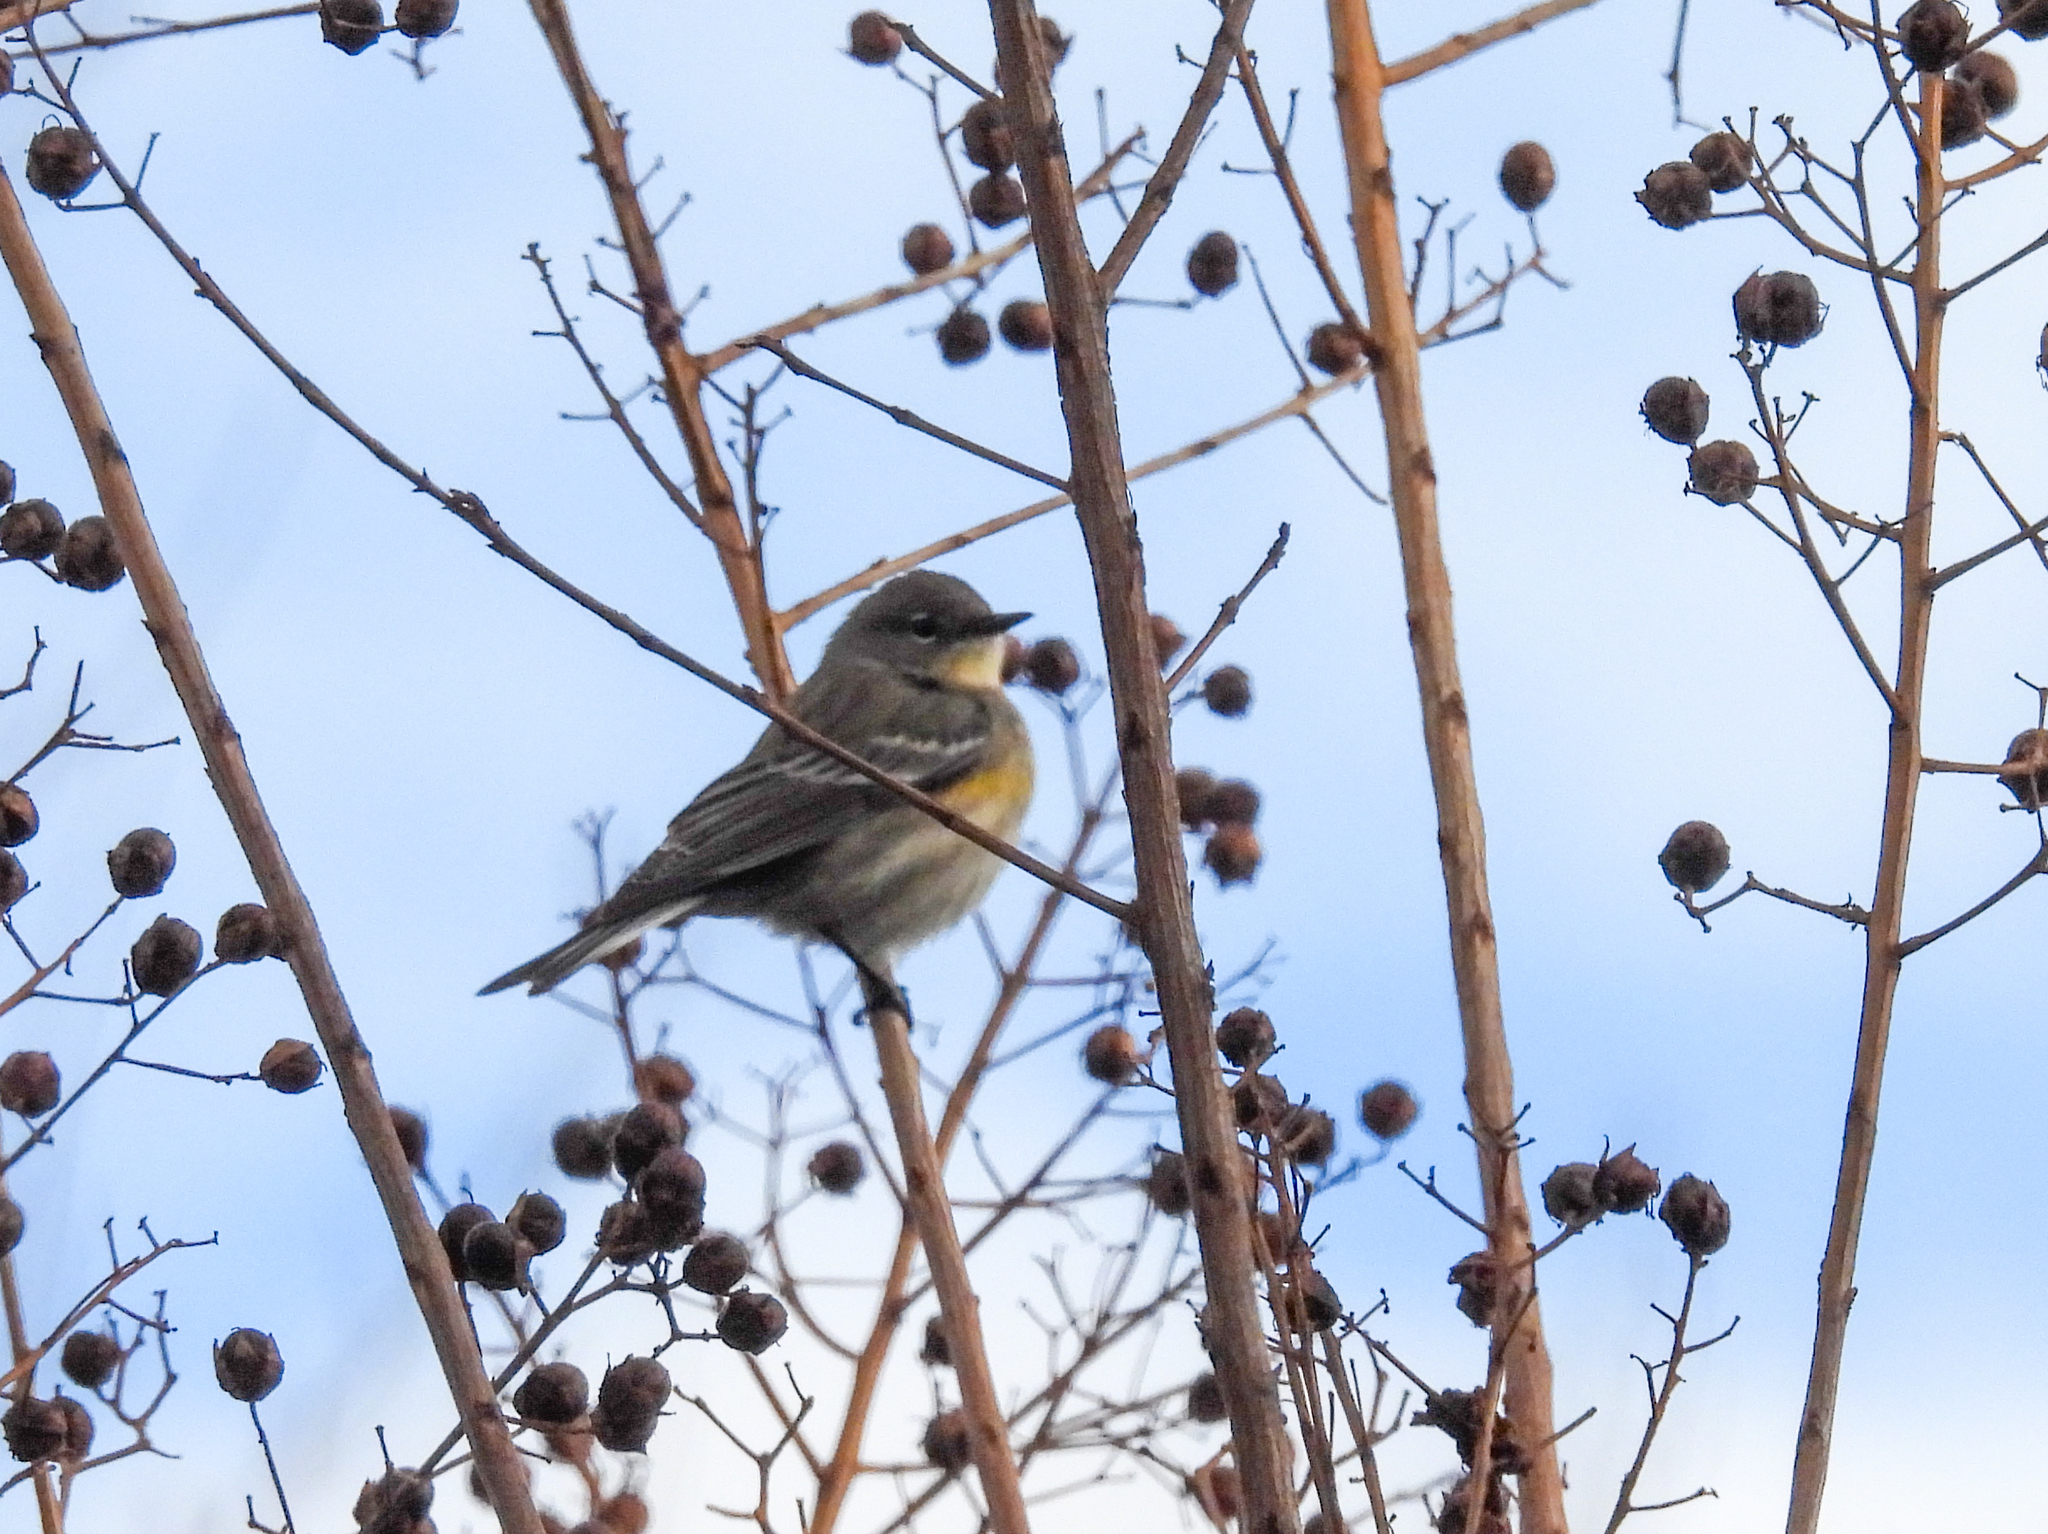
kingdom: Animalia
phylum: Chordata
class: Aves
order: Passeriformes
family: Parulidae
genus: Setophaga
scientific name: Setophaga coronata
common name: Myrtle warbler
